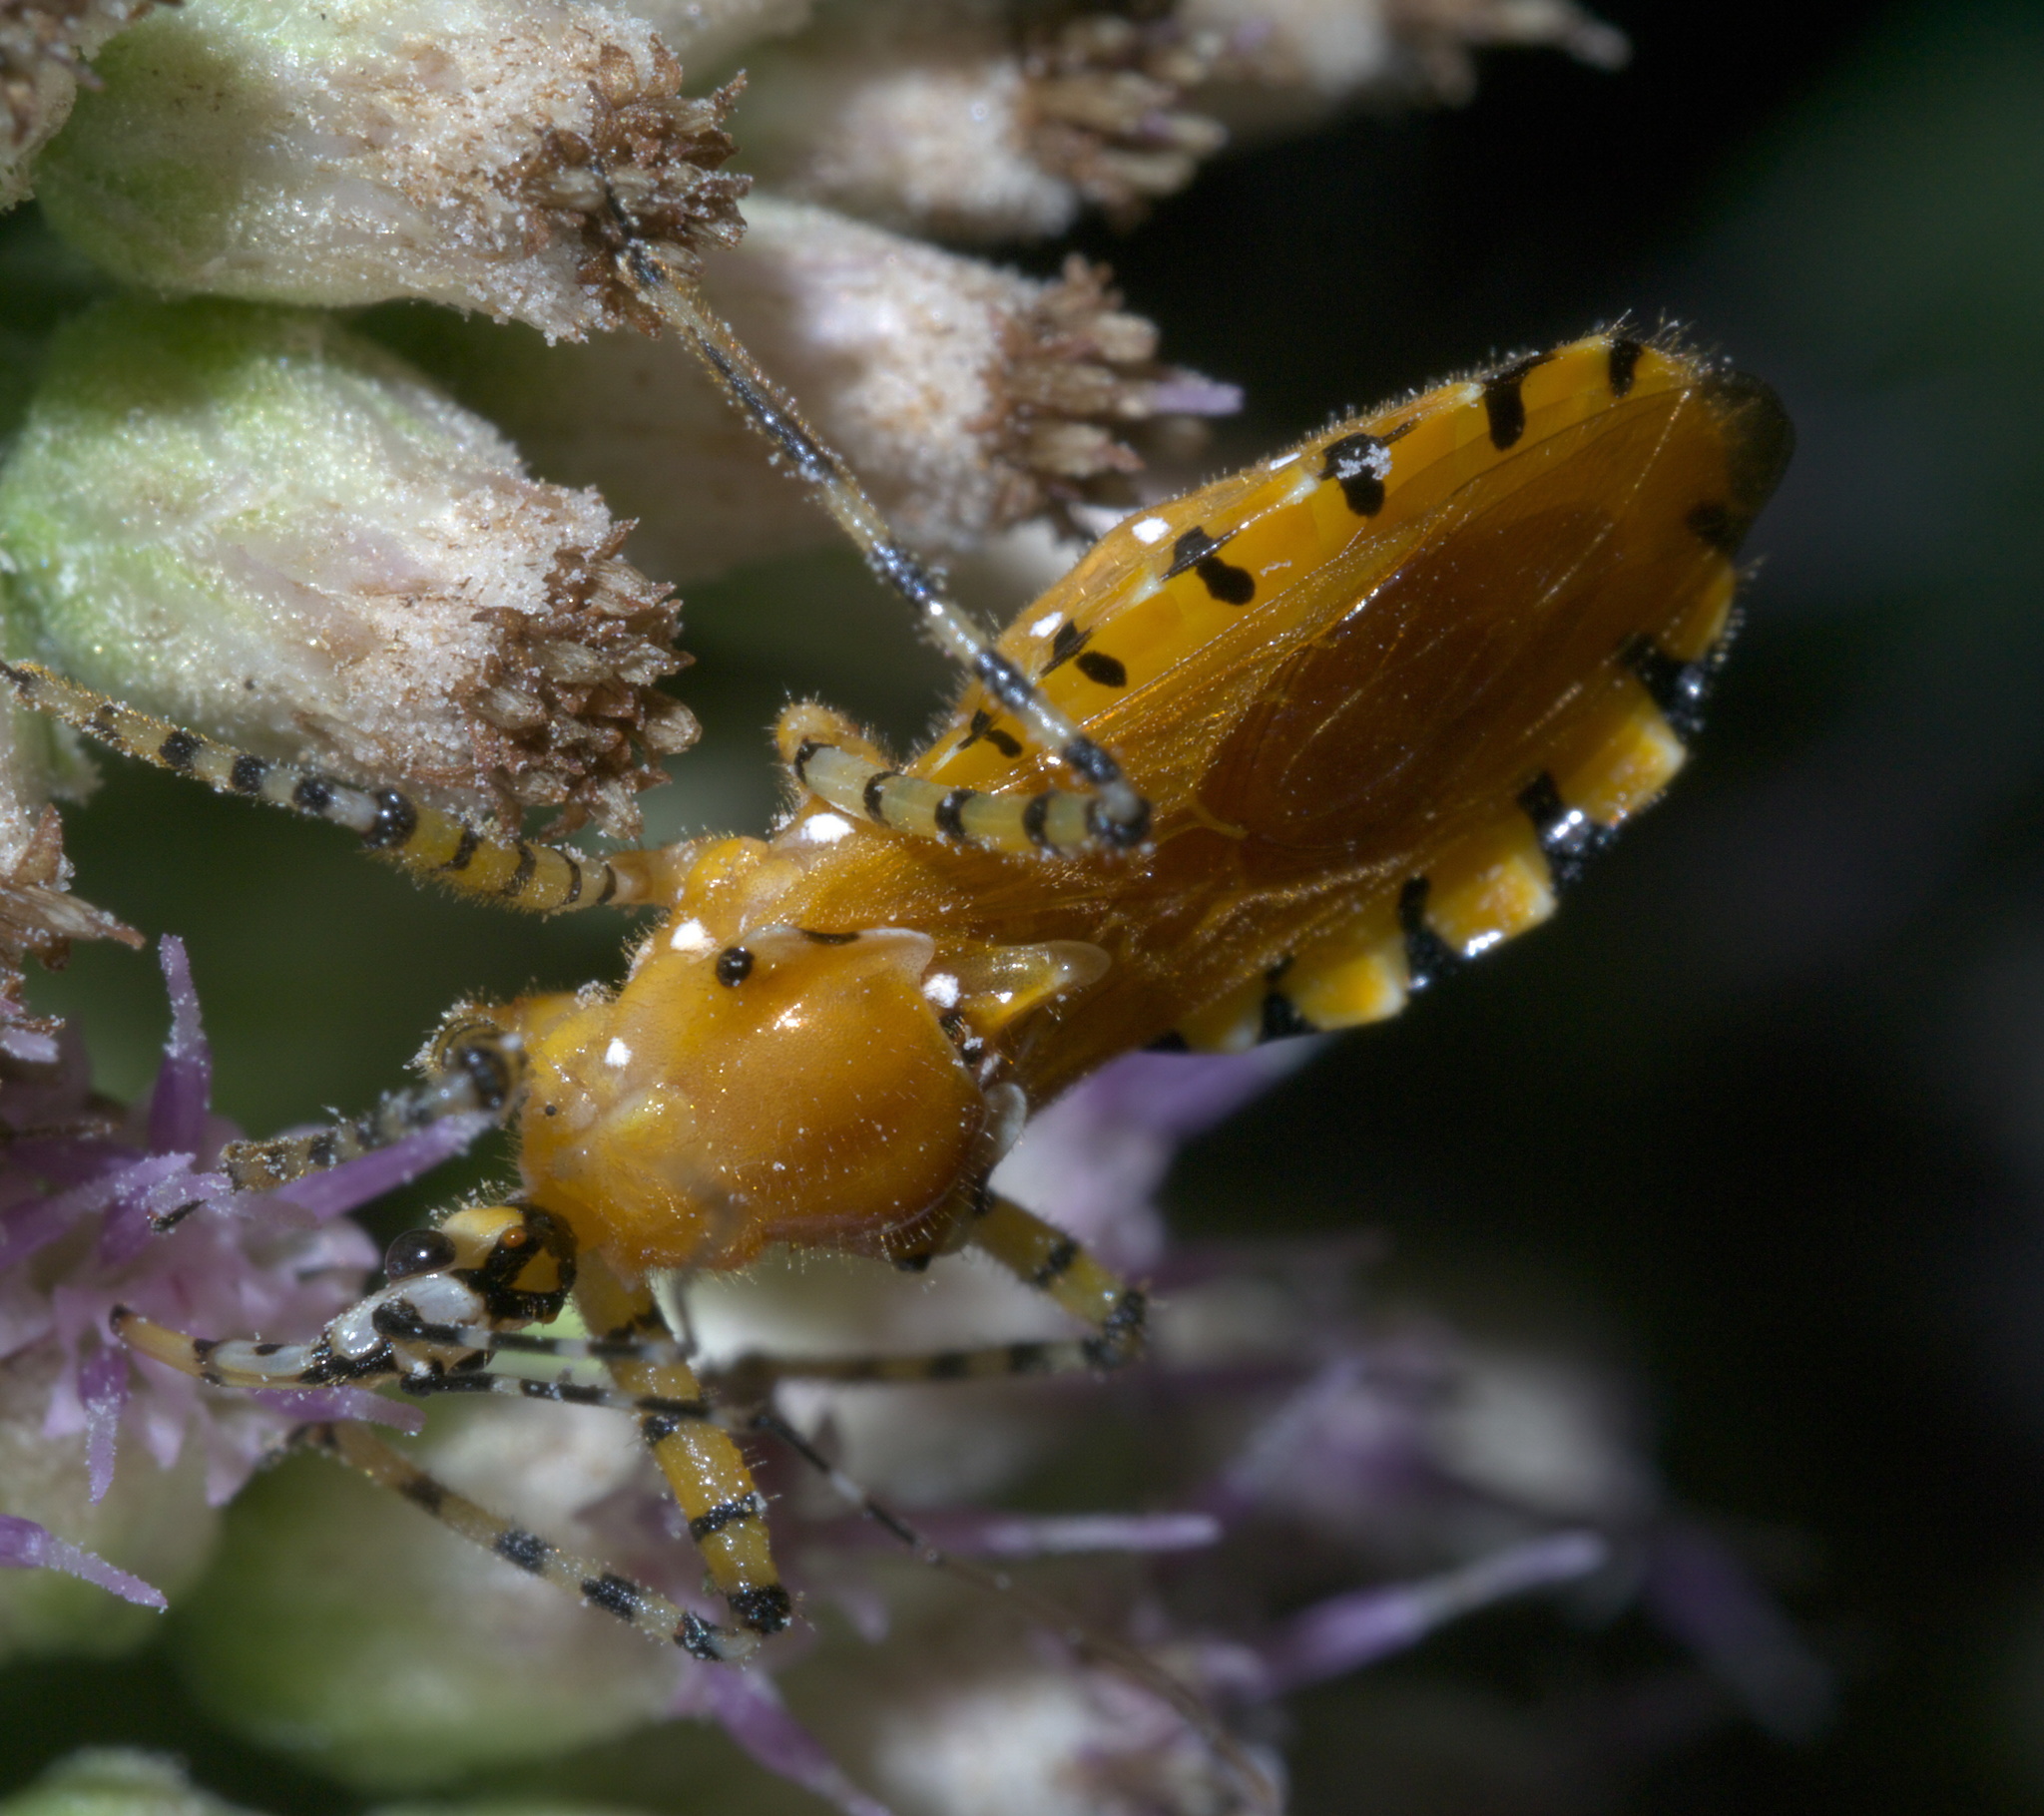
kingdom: Animalia
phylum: Arthropoda
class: Insecta
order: Hemiptera
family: Reduviidae
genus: Pselliopus
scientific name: Pselliopus barberi
